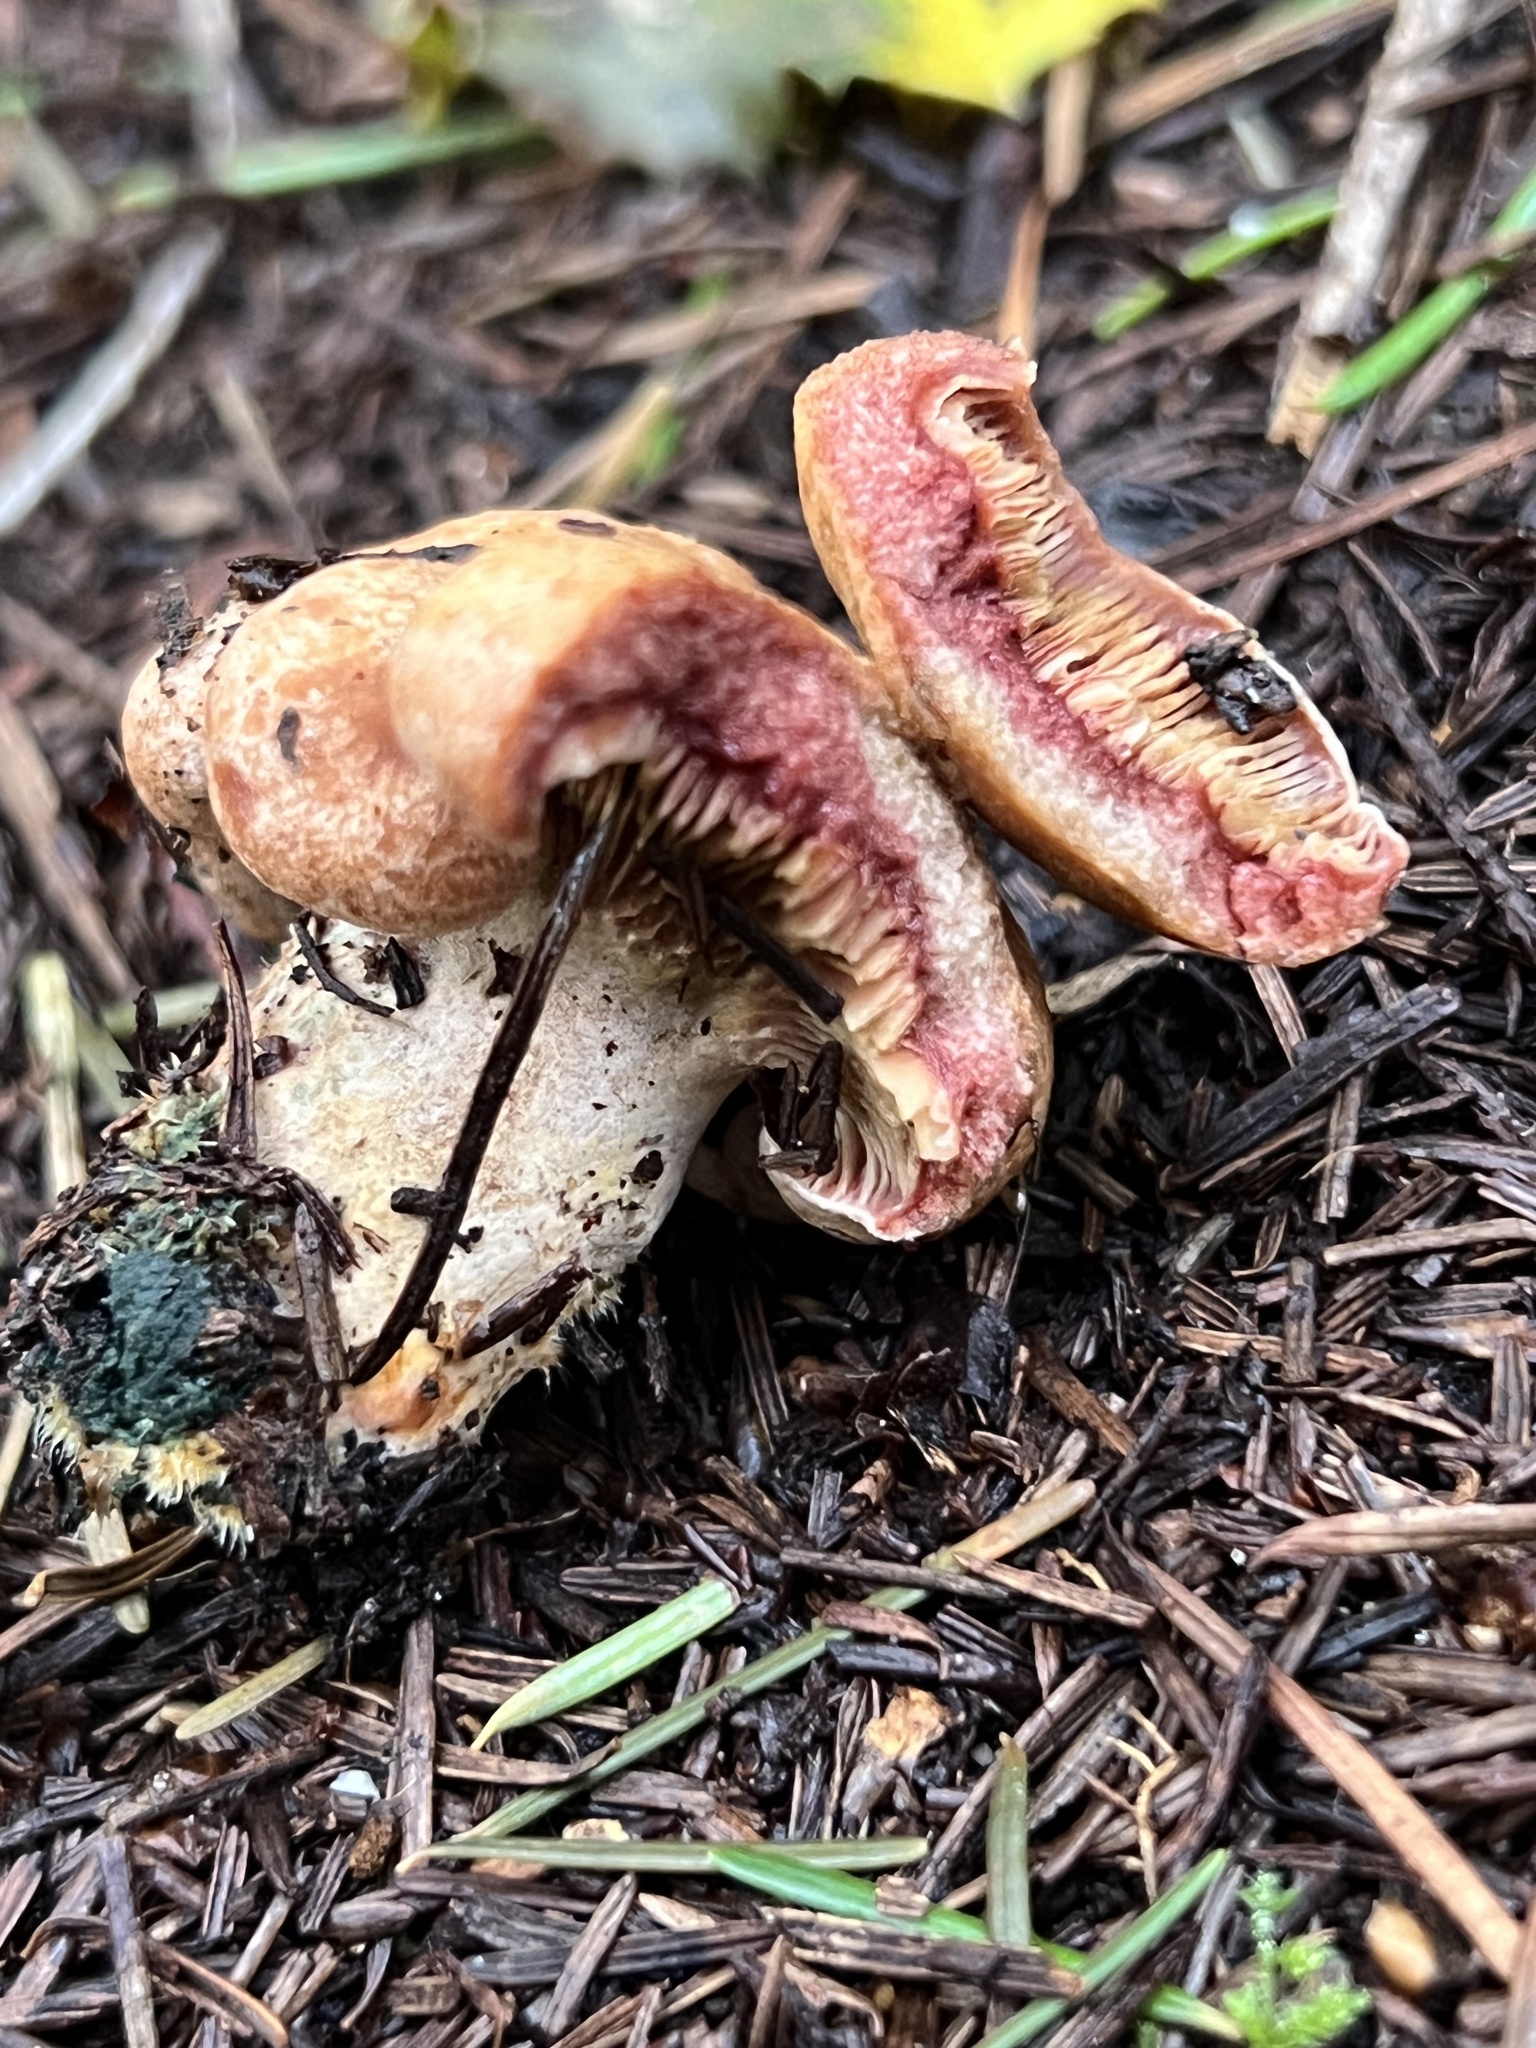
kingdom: Fungi
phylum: Basidiomycota
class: Agaricomycetes
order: Russulales
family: Russulaceae
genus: Lactarius
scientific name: Lactarius rubrilacteus
